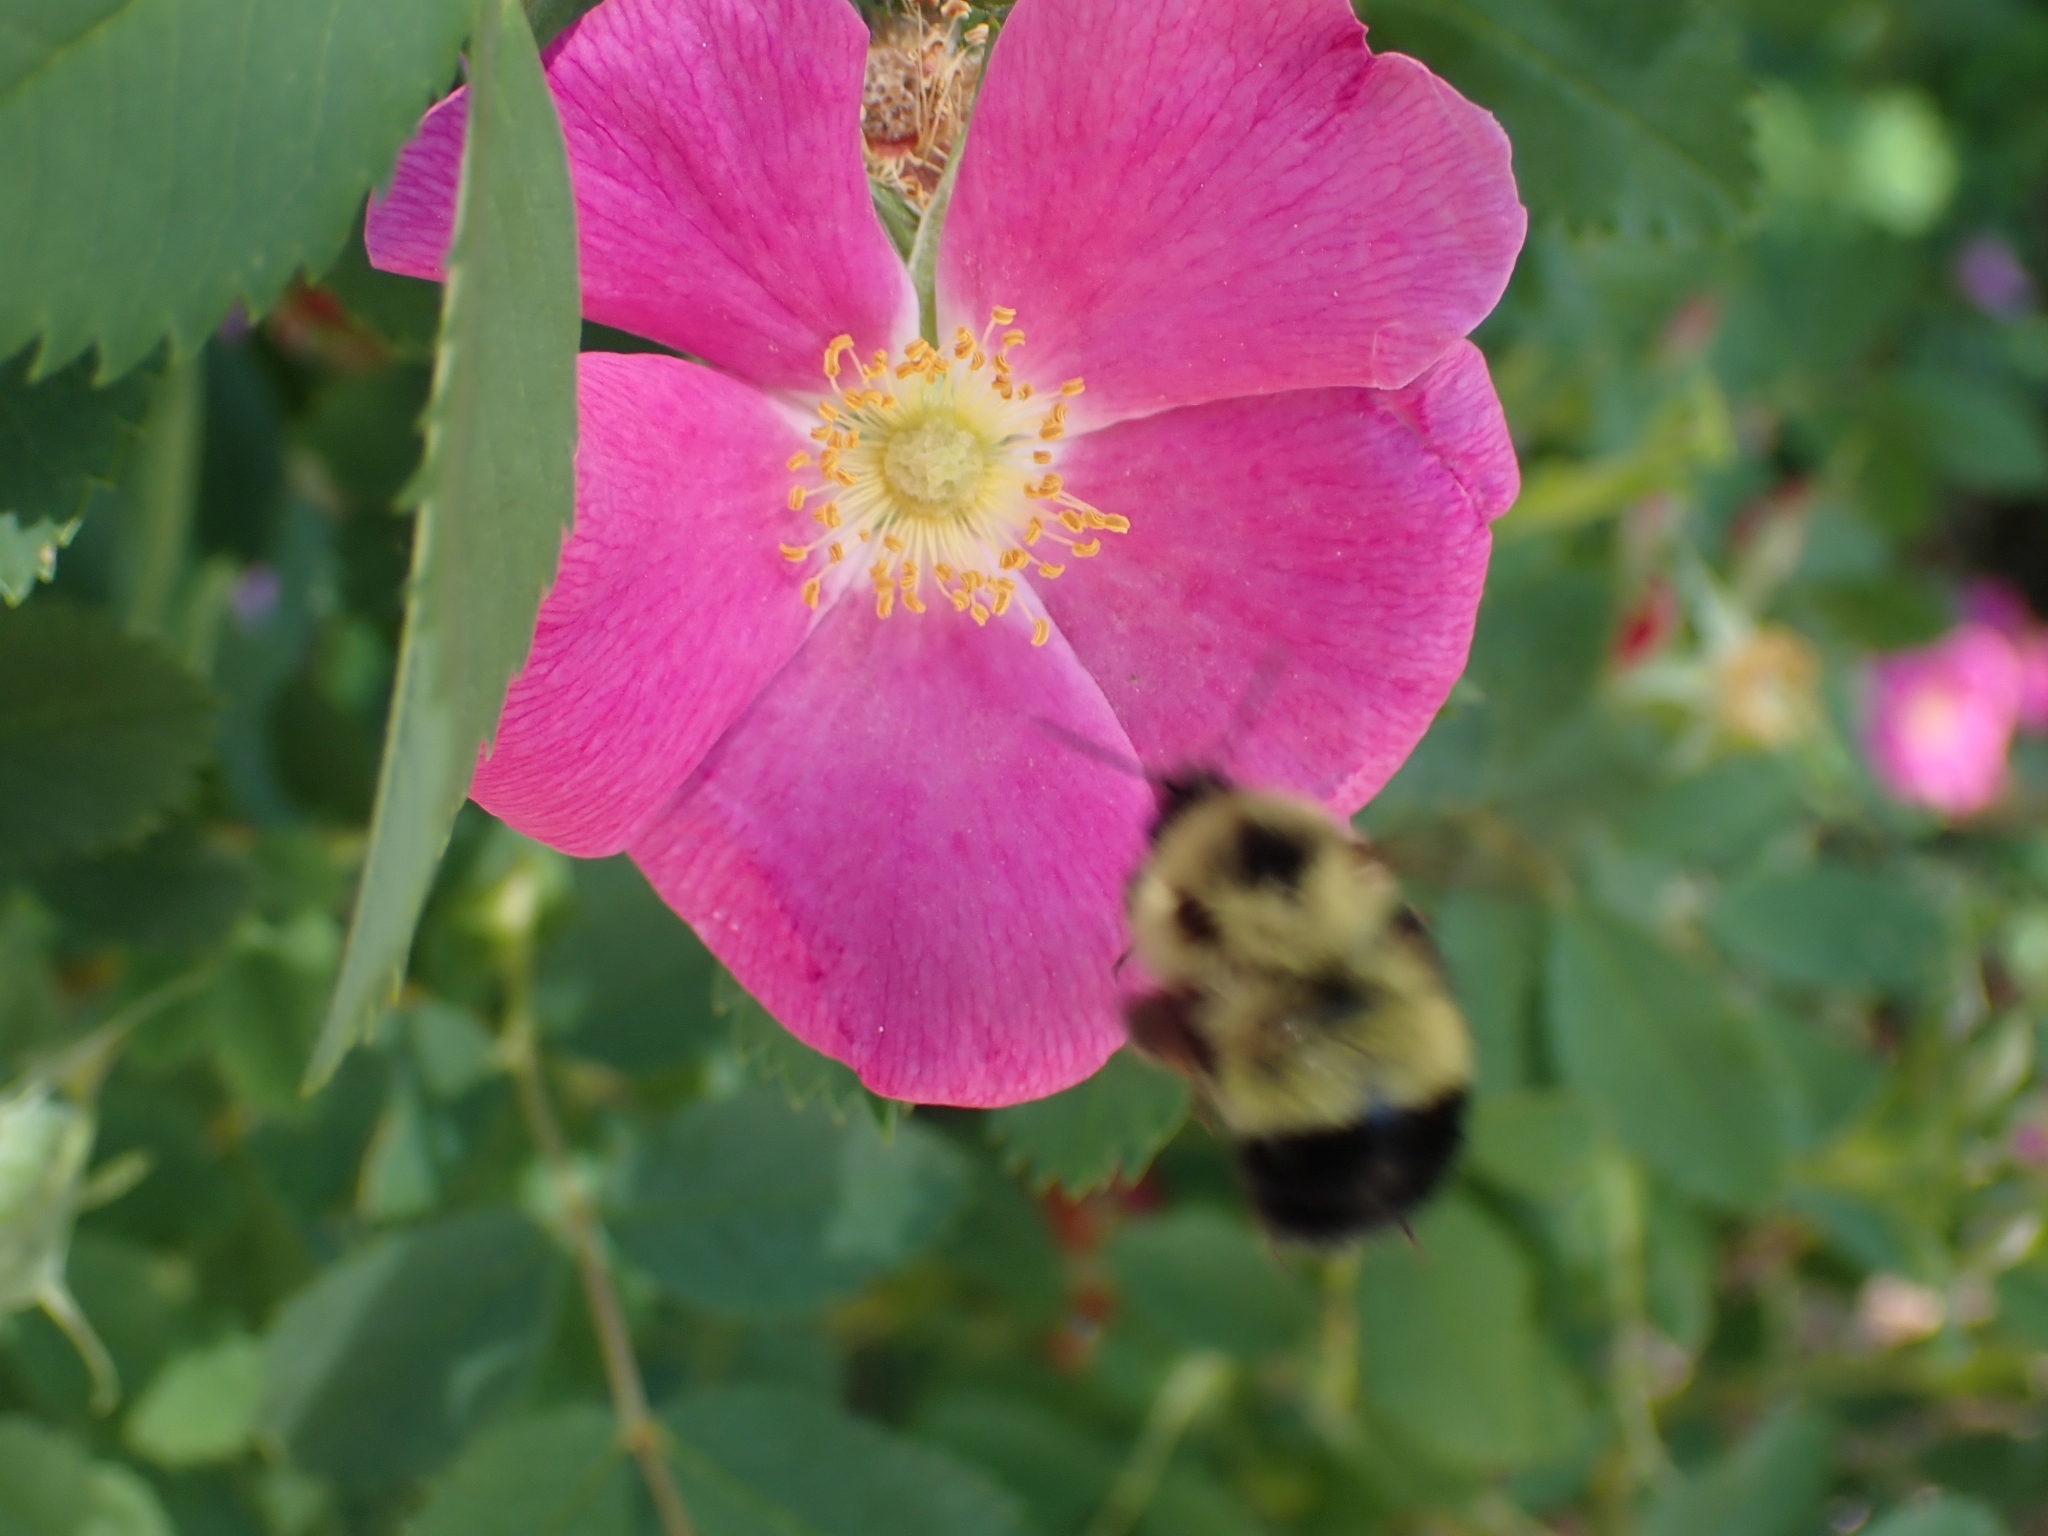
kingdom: Animalia
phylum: Arthropoda
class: Insecta
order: Hymenoptera
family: Apidae
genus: Bombus
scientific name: Bombus vagans
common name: Half-black bumble bee
